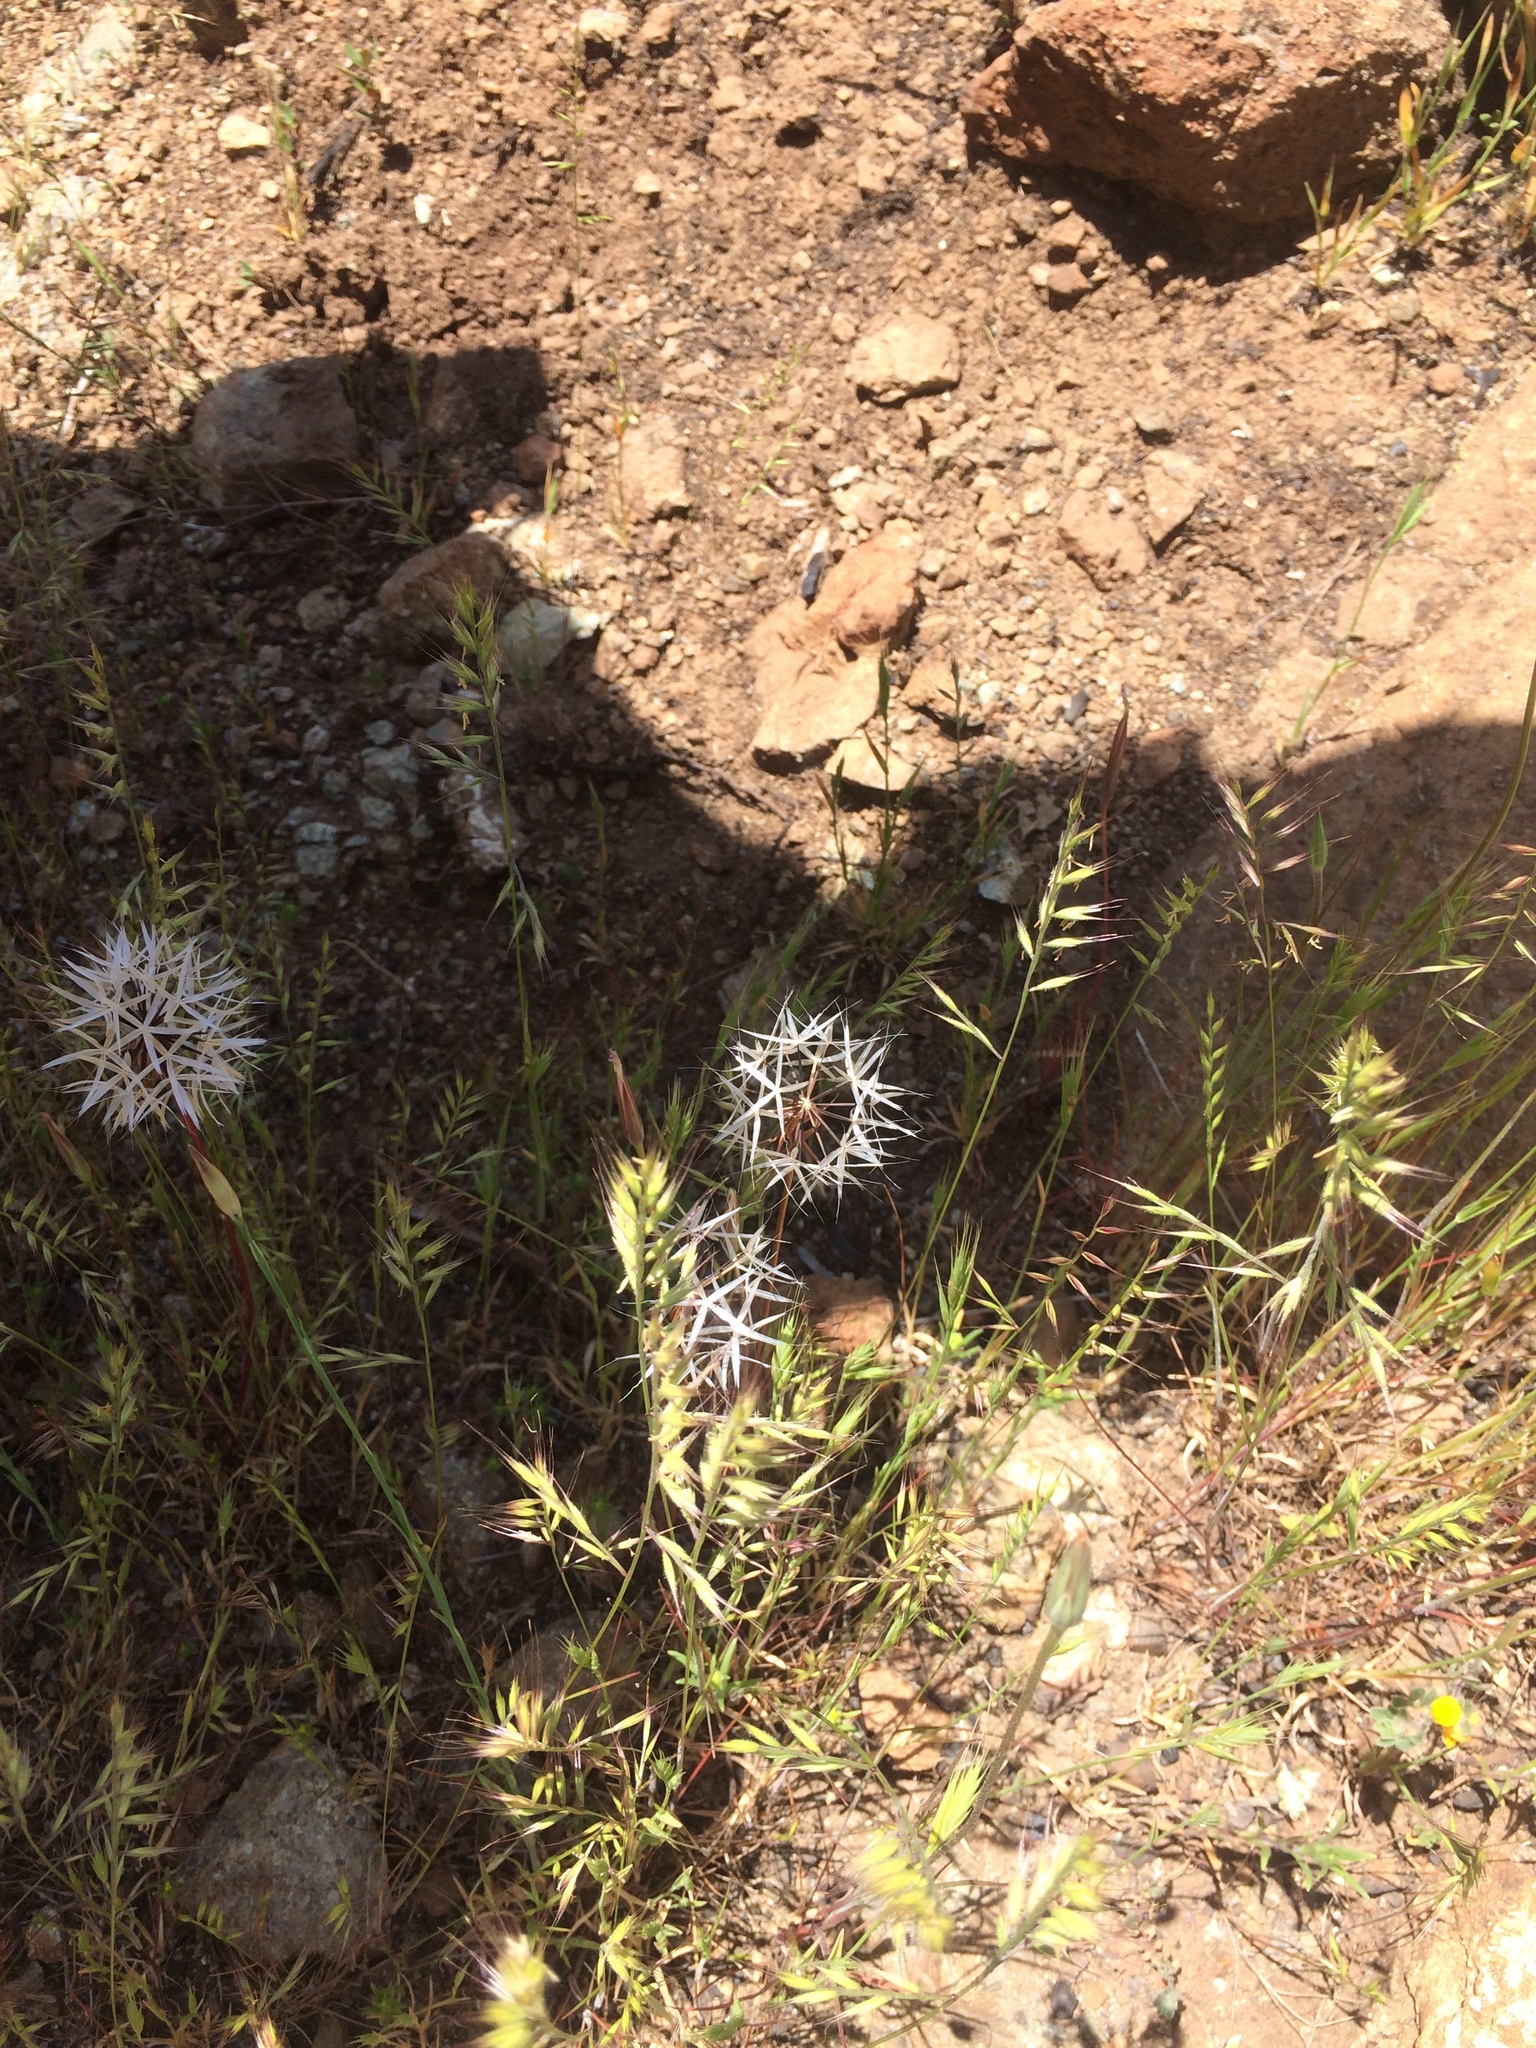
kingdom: Plantae
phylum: Tracheophyta
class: Magnoliopsida
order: Asterales
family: Asteraceae
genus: Microseris
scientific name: Microseris lindleyi
